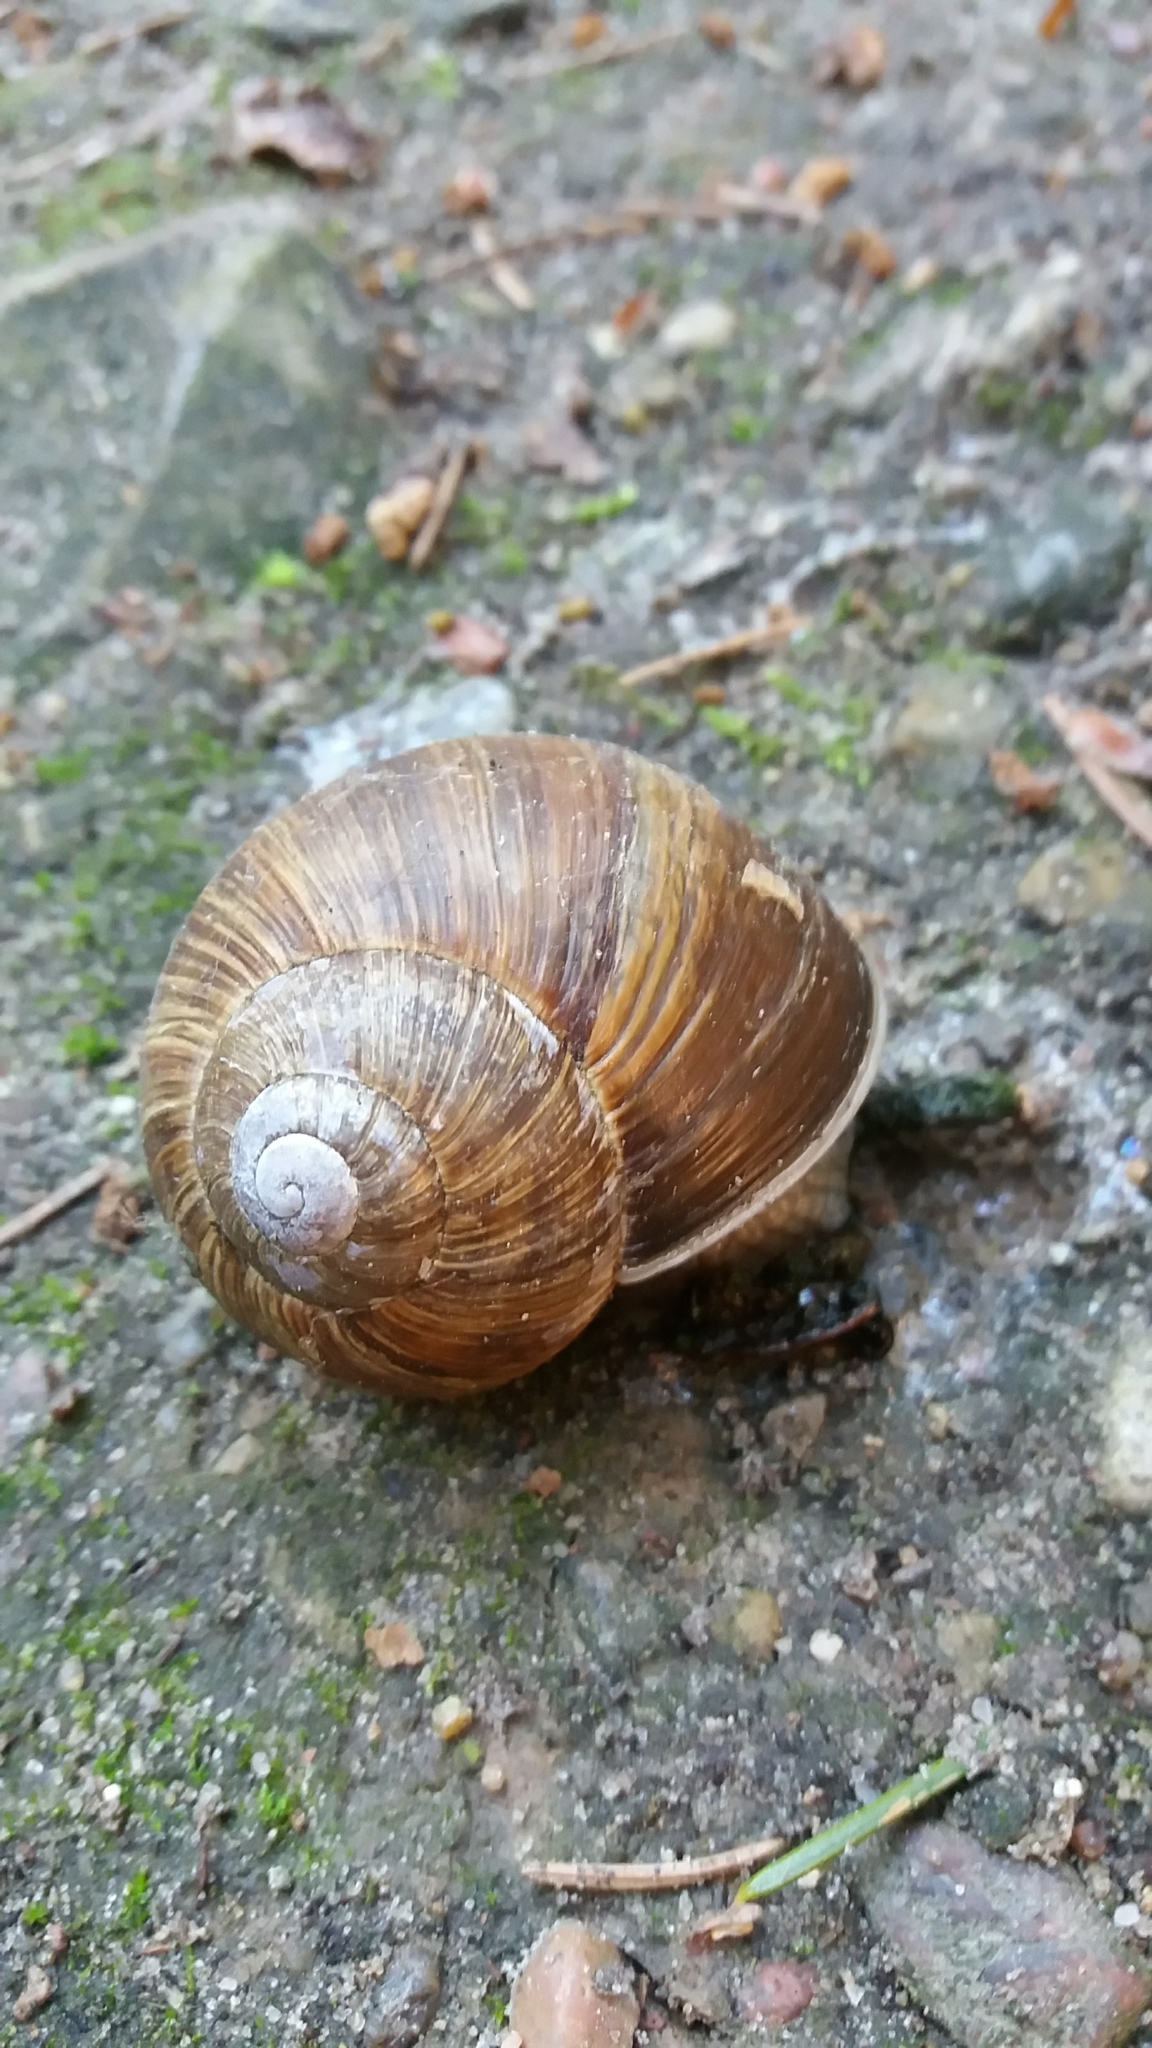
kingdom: Animalia
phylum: Mollusca
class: Gastropoda
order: Stylommatophora
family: Helicidae
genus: Helix
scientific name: Helix pomatia
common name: Roman snail
